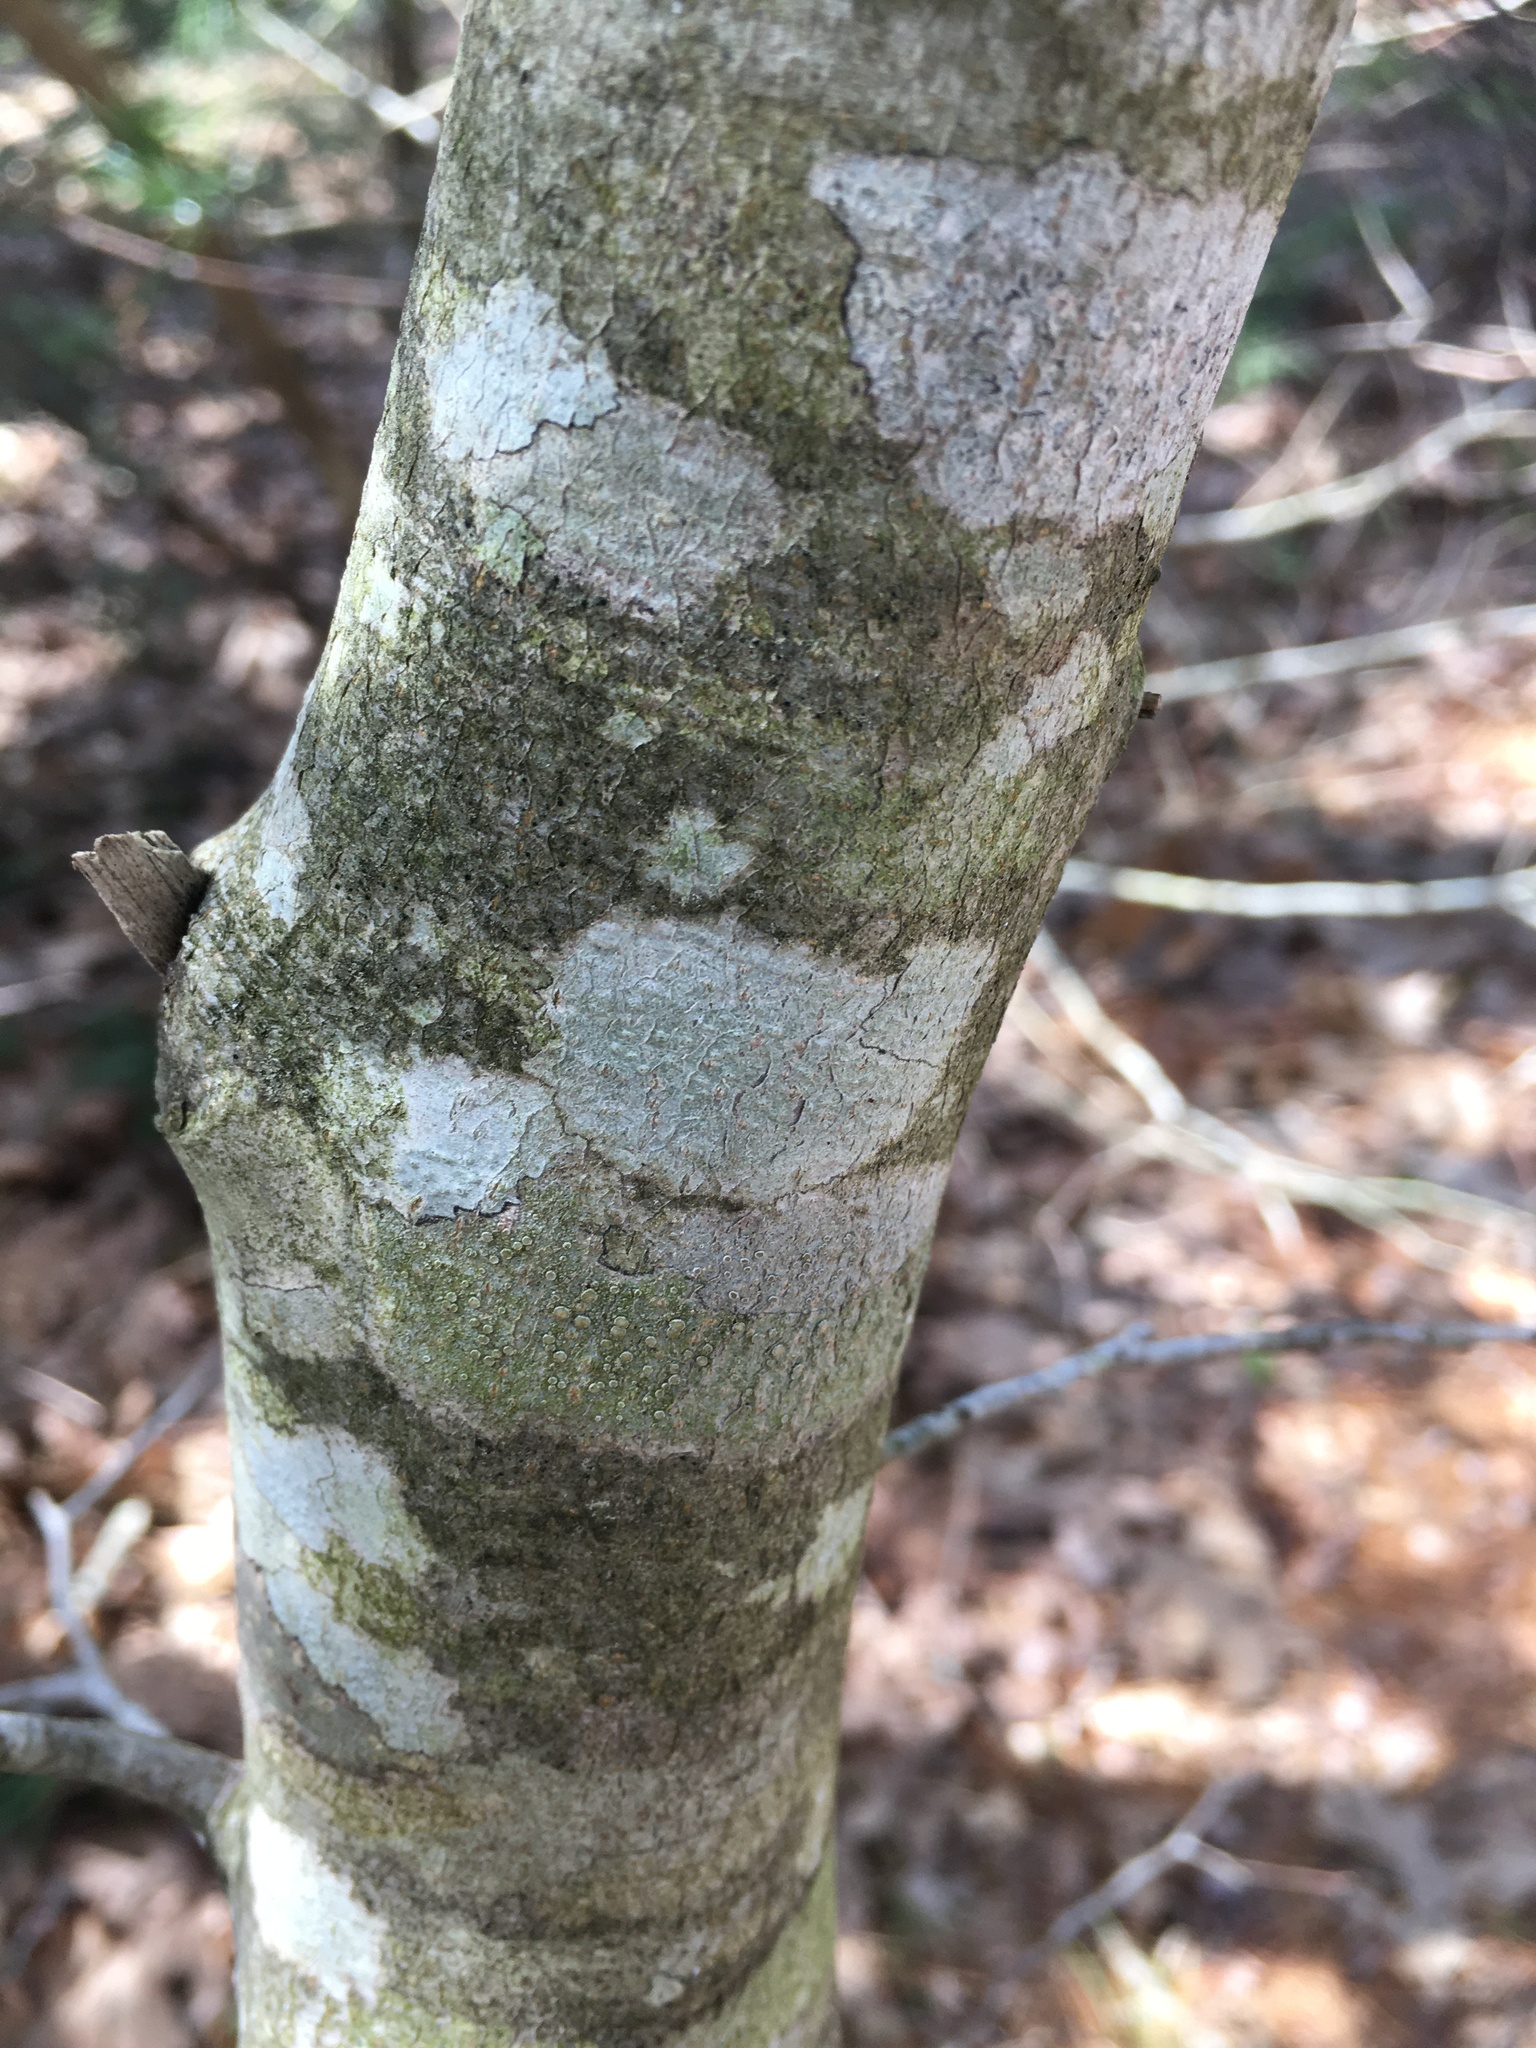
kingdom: Plantae
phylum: Tracheophyta
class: Magnoliopsida
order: Fagales
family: Fagaceae
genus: Fagus
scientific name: Fagus grandifolia
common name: American beech
